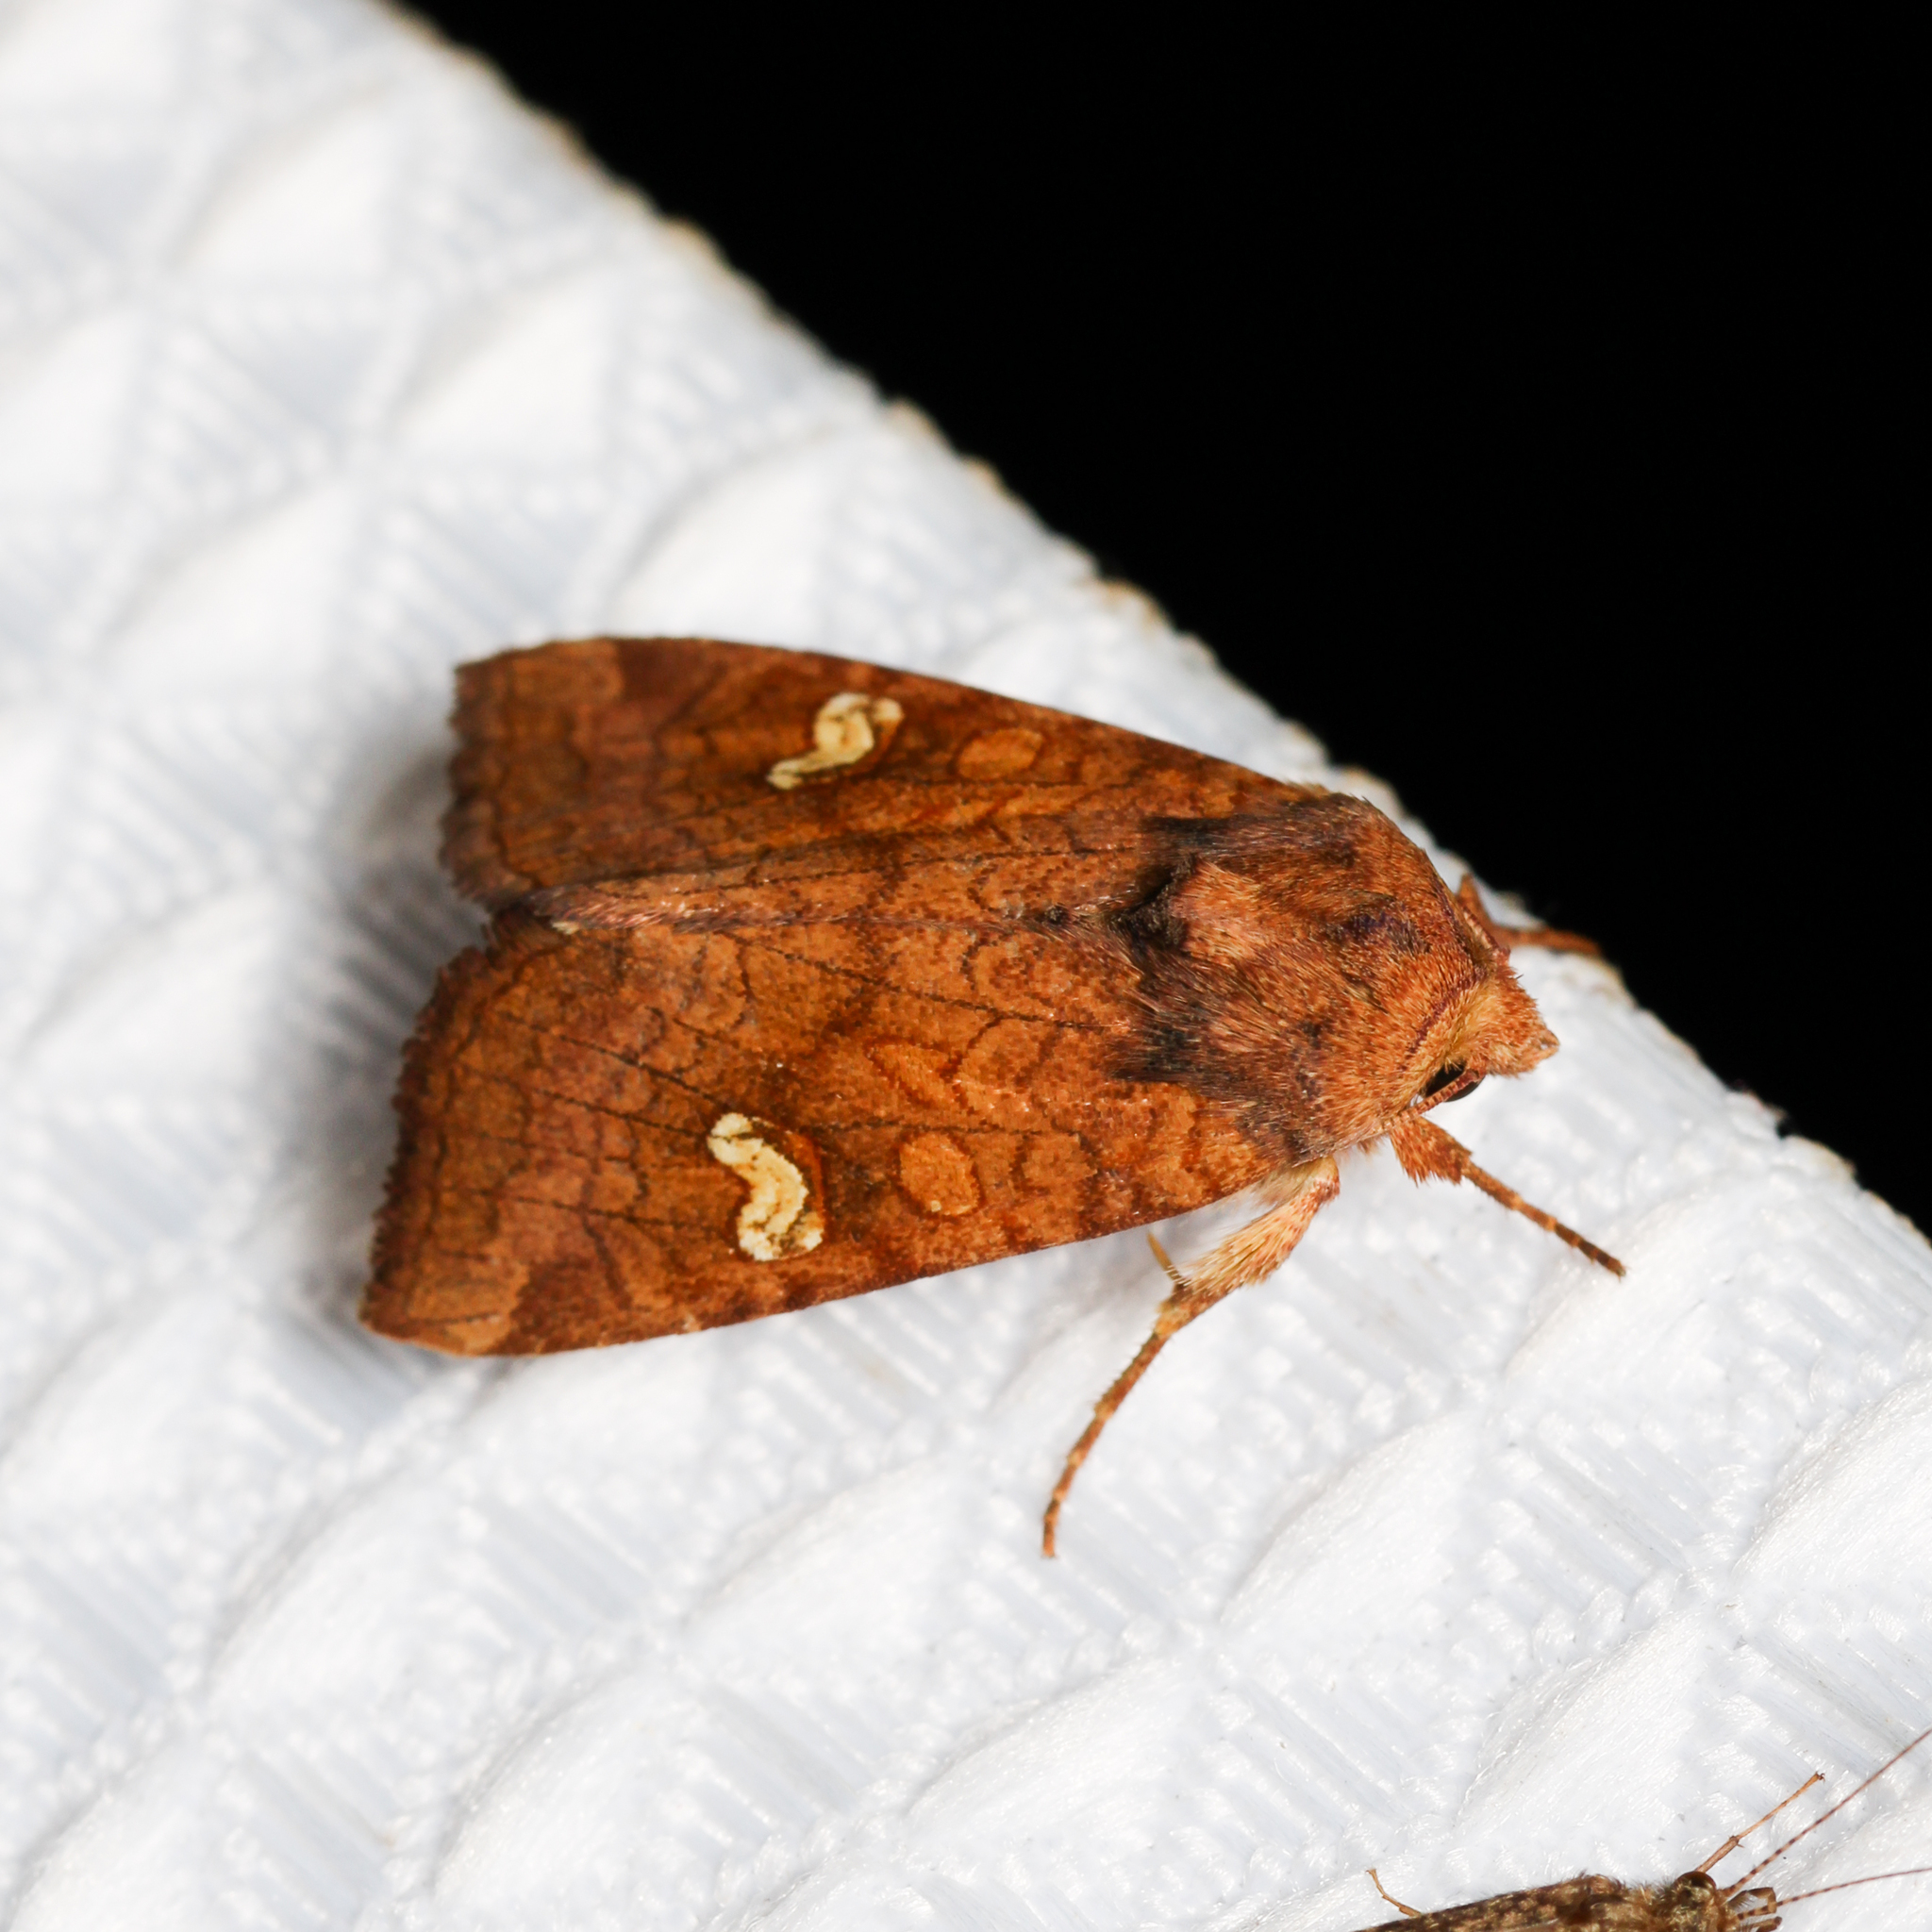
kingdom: Animalia
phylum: Arthropoda
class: Insecta
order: Lepidoptera
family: Noctuidae
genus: Amphipoea
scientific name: Amphipoea
